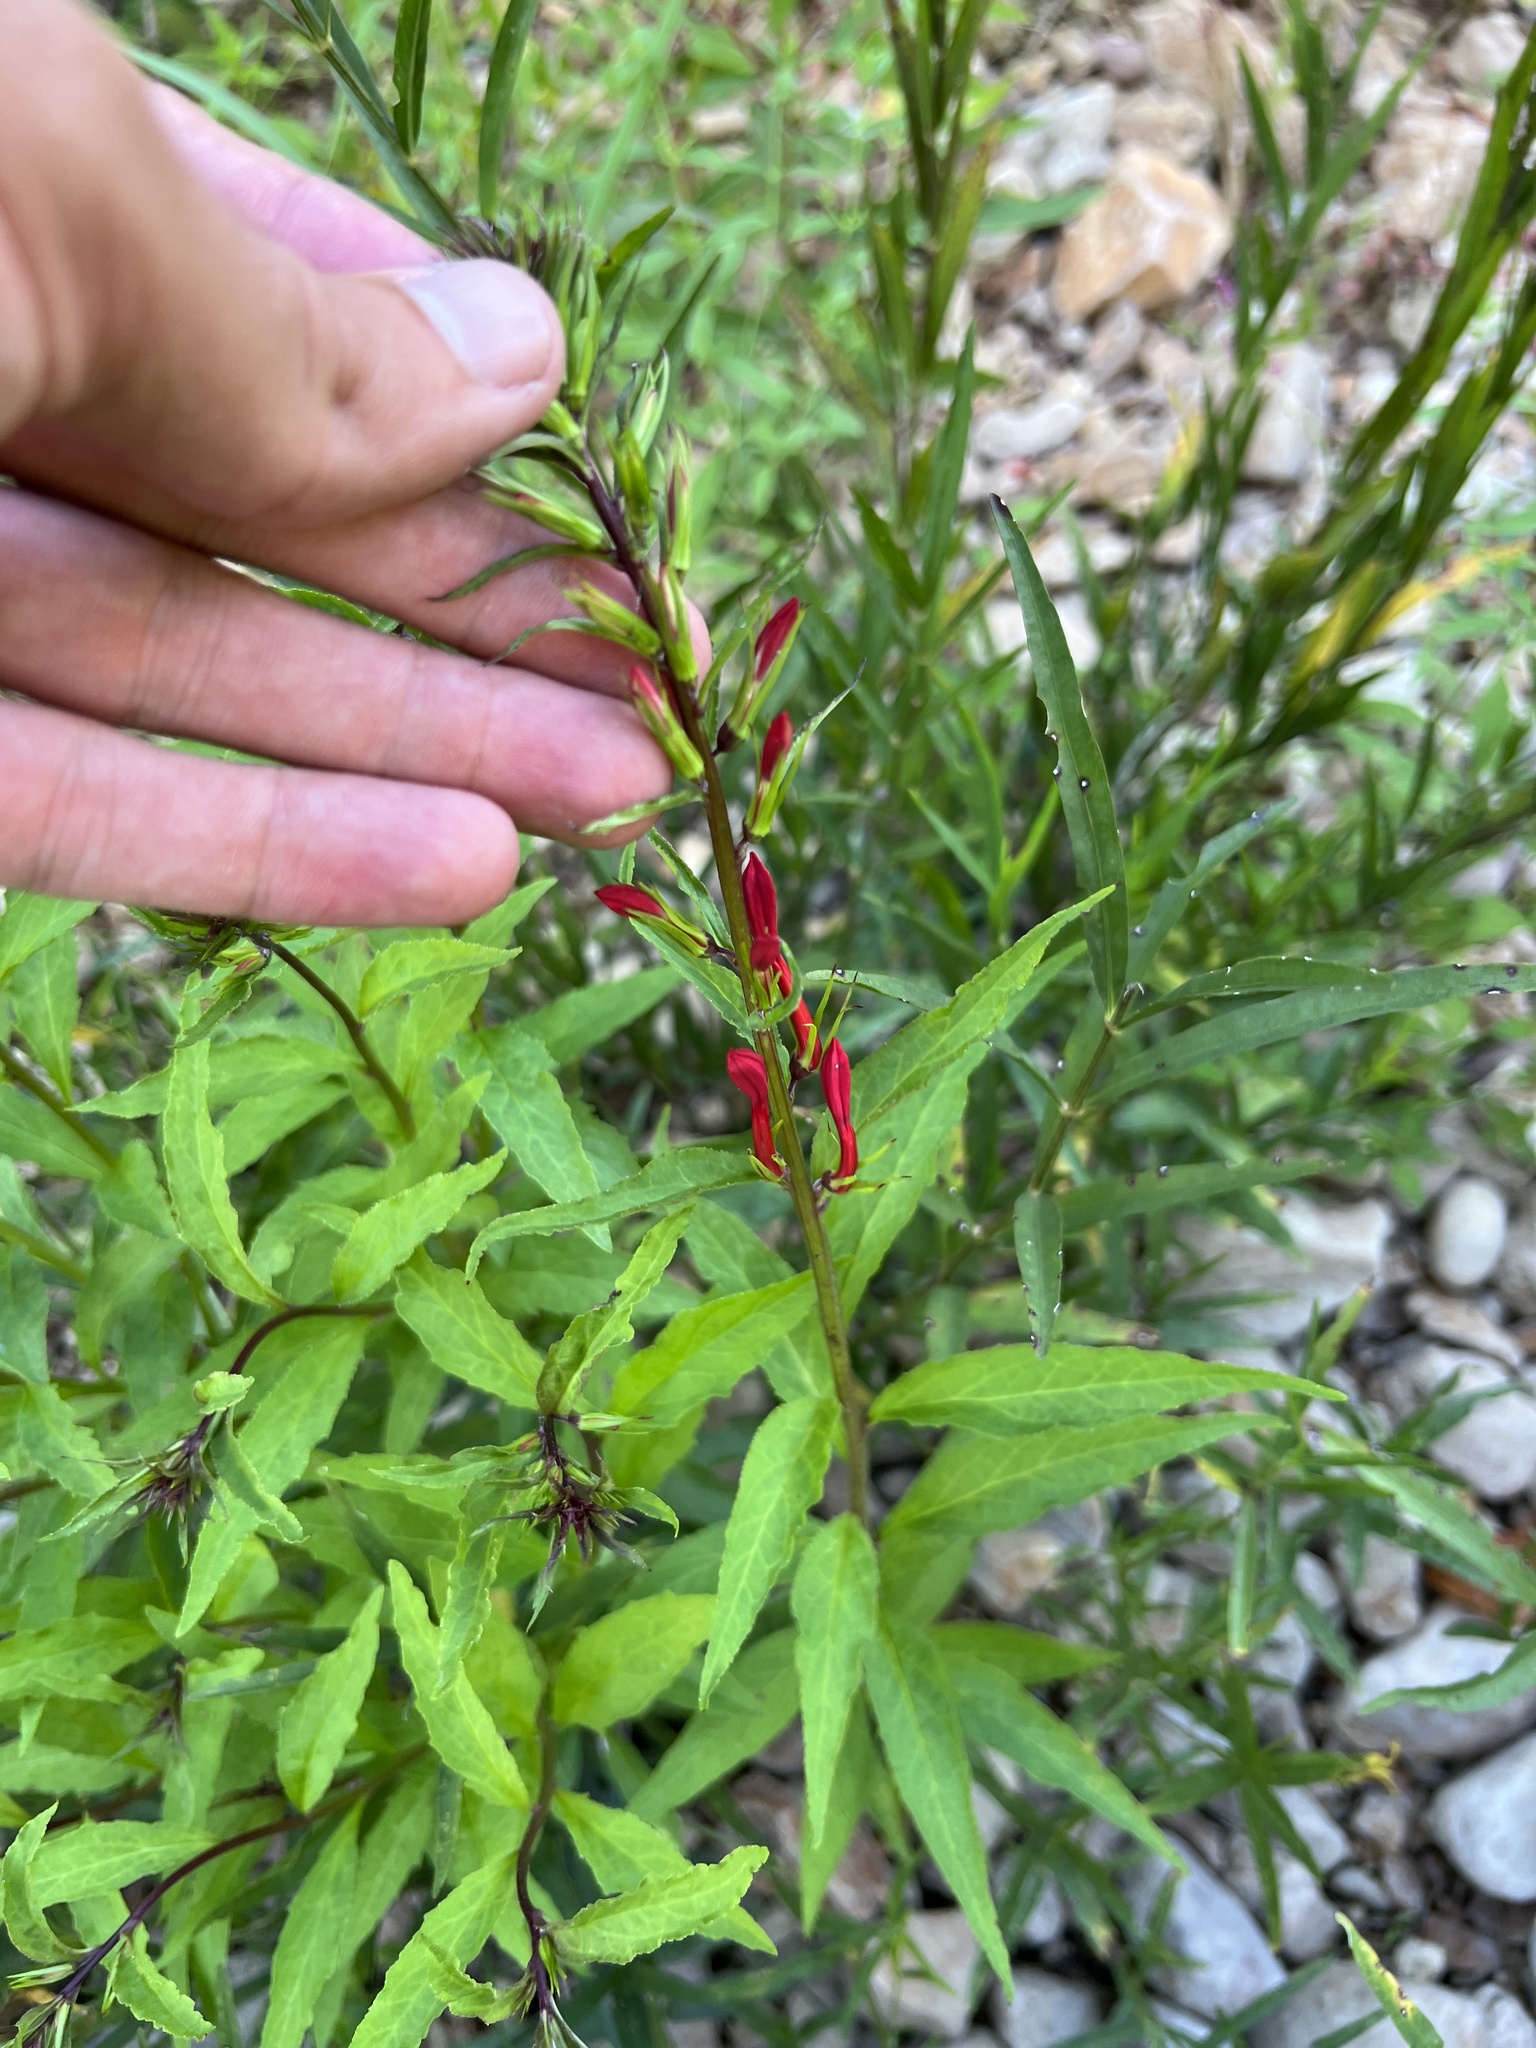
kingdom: Plantae
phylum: Tracheophyta
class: Magnoliopsida
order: Asterales
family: Campanulaceae
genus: Lobelia
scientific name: Lobelia cardinalis
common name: Cardinal flower
